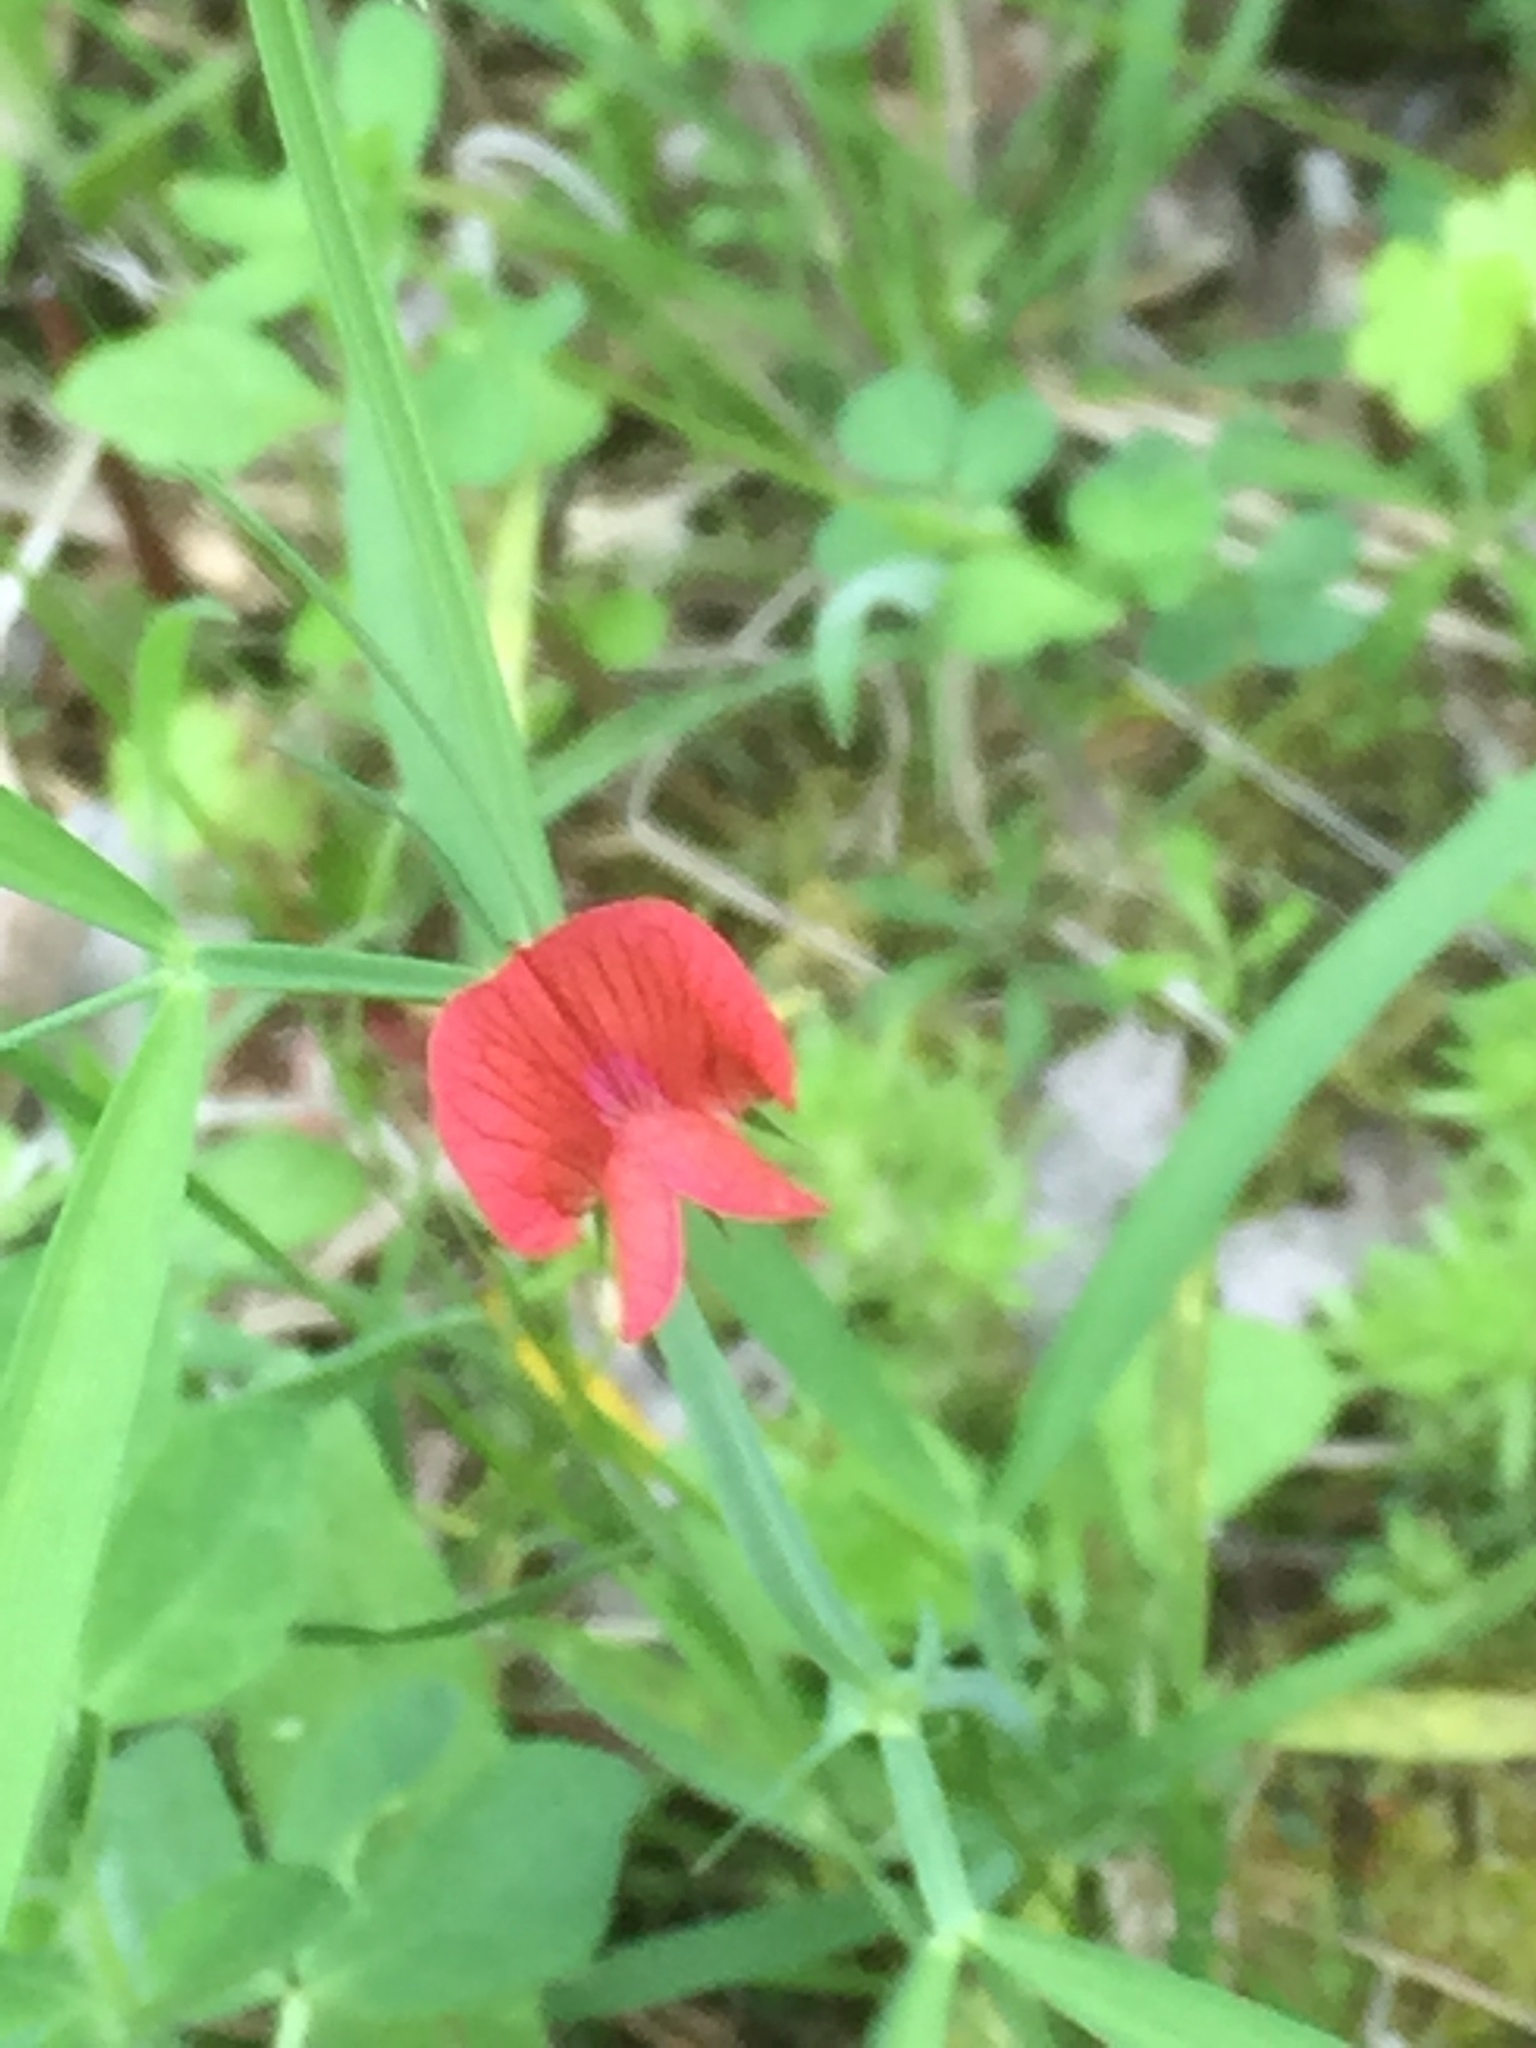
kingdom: Plantae
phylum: Tracheophyta
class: Magnoliopsida
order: Fabales
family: Fabaceae
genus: Lathyrus
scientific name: Lathyrus sphaericus
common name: Grass pea
